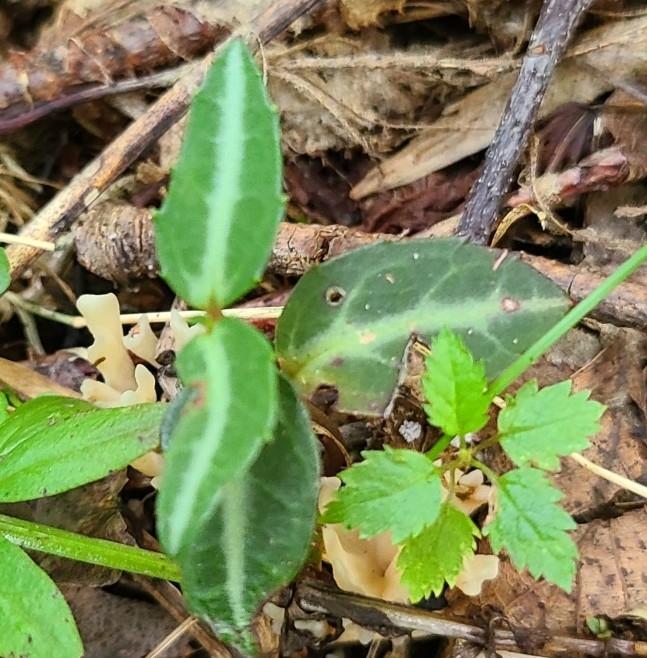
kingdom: Plantae
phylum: Tracheophyta
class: Magnoliopsida
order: Ericales
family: Ericaceae
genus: Chimaphila
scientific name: Chimaphila maculata
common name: Spotted pipsissewa
